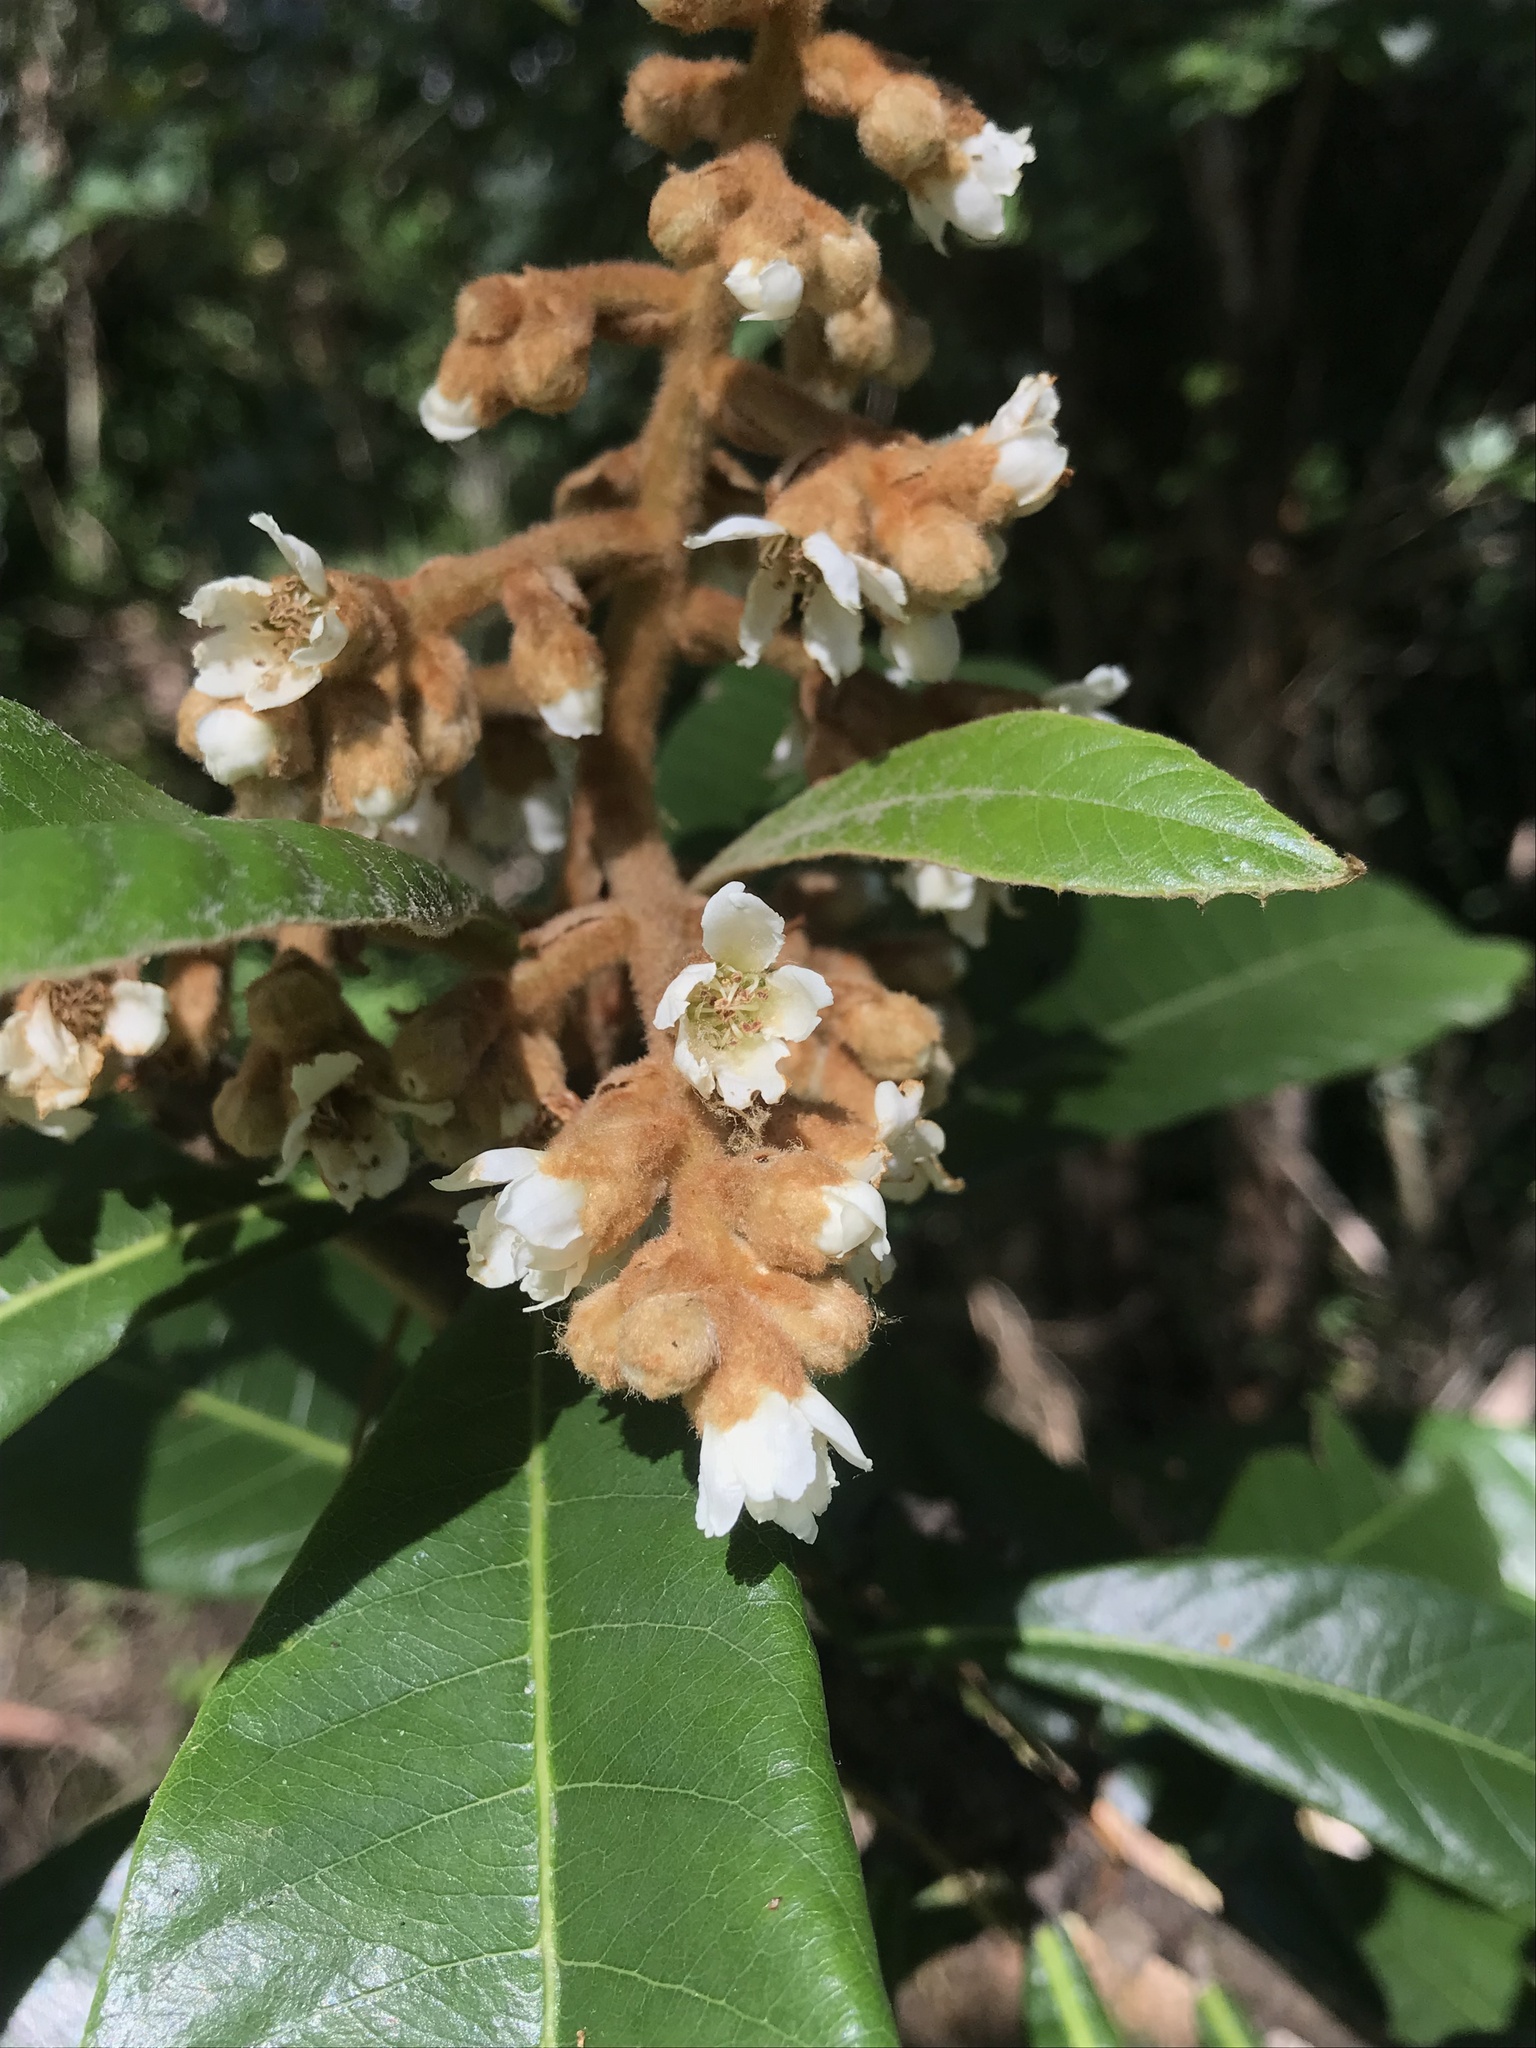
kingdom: Plantae
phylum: Tracheophyta
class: Magnoliopsida
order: Rosales
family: Rosaceae
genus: Rhaphiolepis
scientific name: Rhaphiolepis bibas
